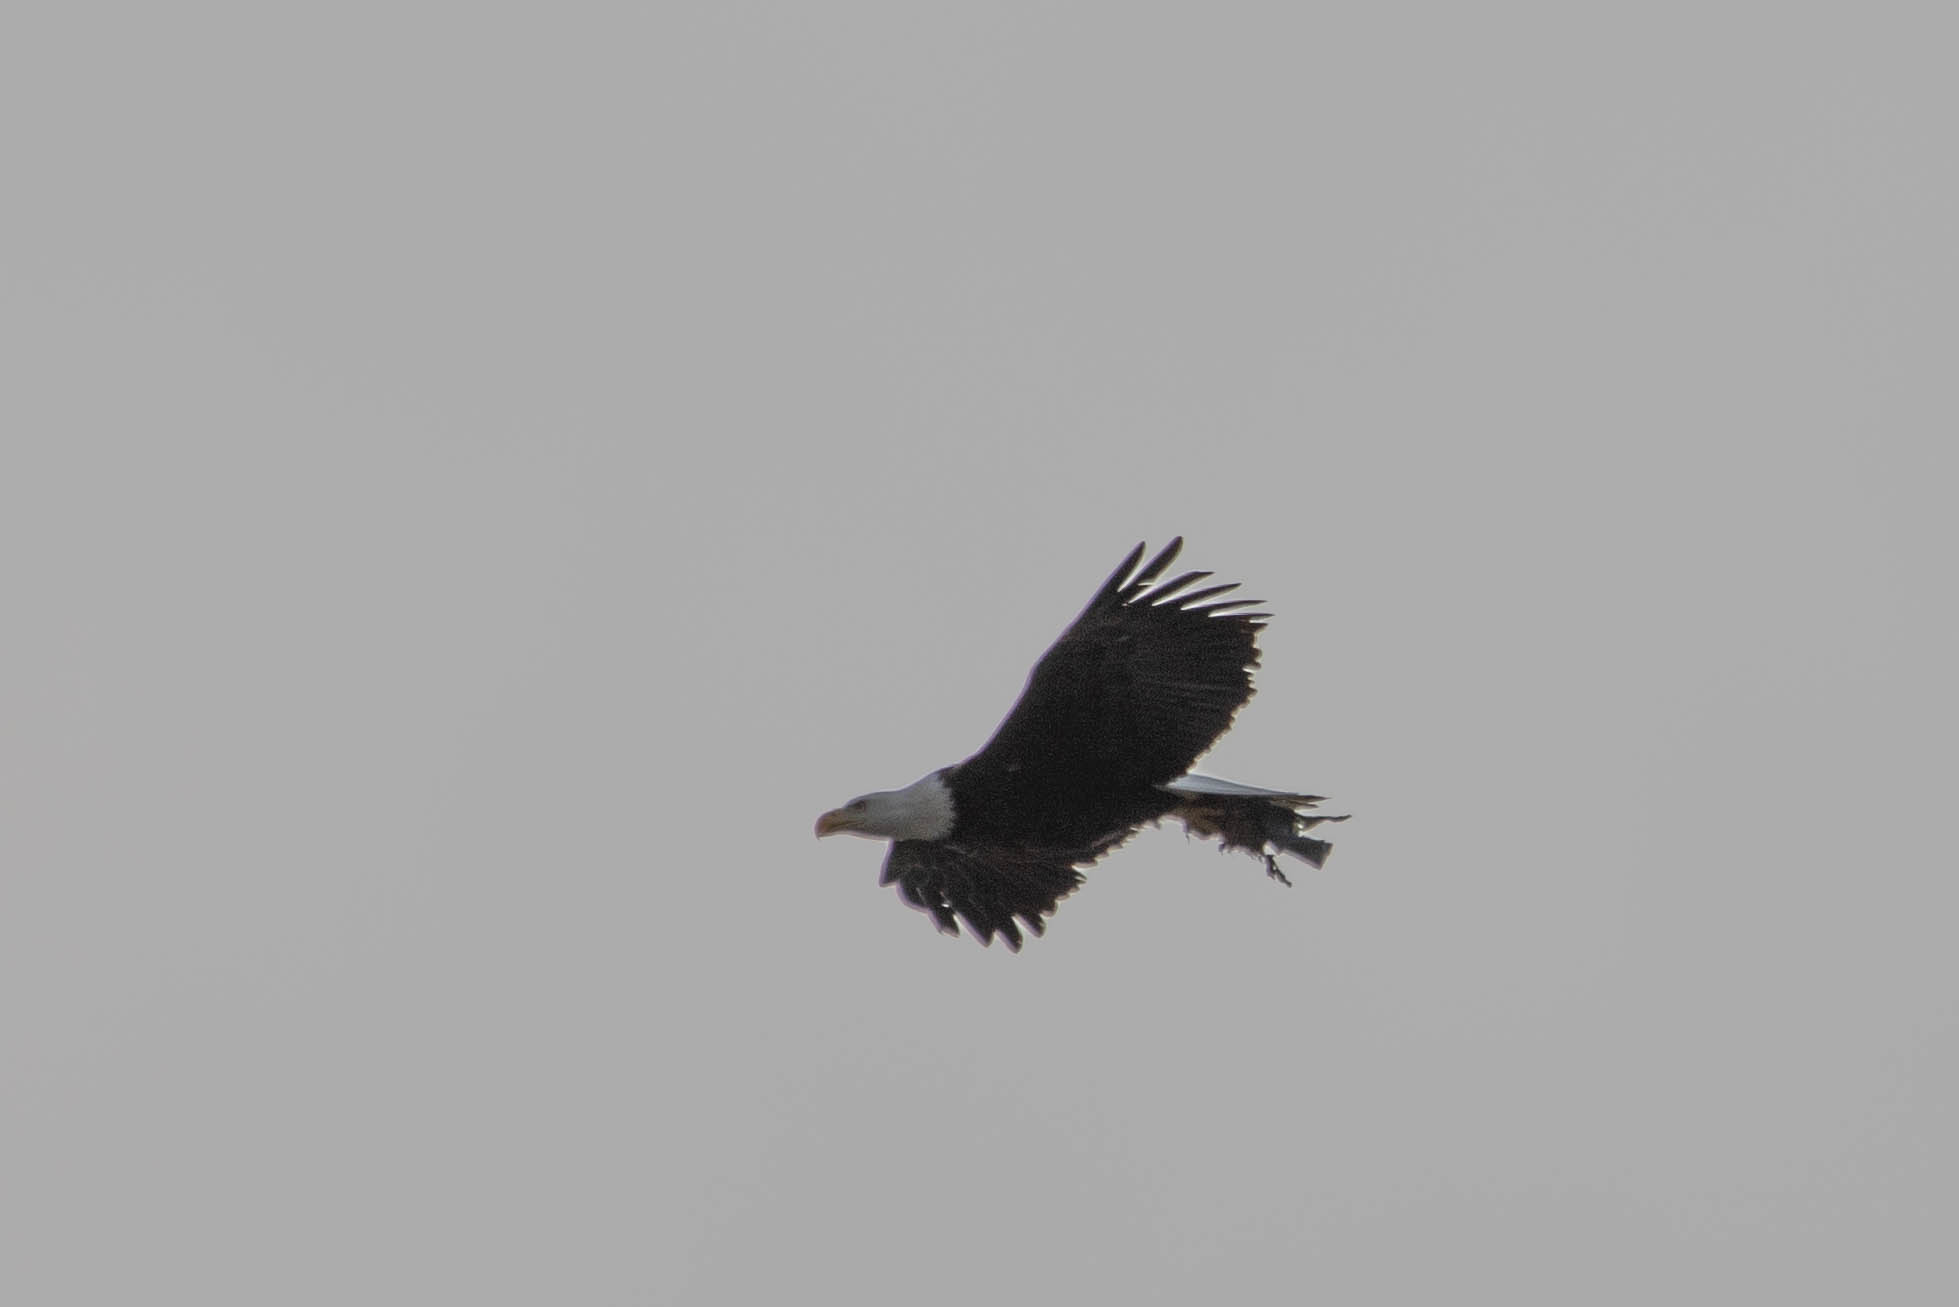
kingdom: Animalia
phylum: Chordata
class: Aves
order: Accipitriformes
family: Accipitridae
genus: Haliaeetus
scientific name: Haliaeetus leucocephalus
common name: Bald eagle
